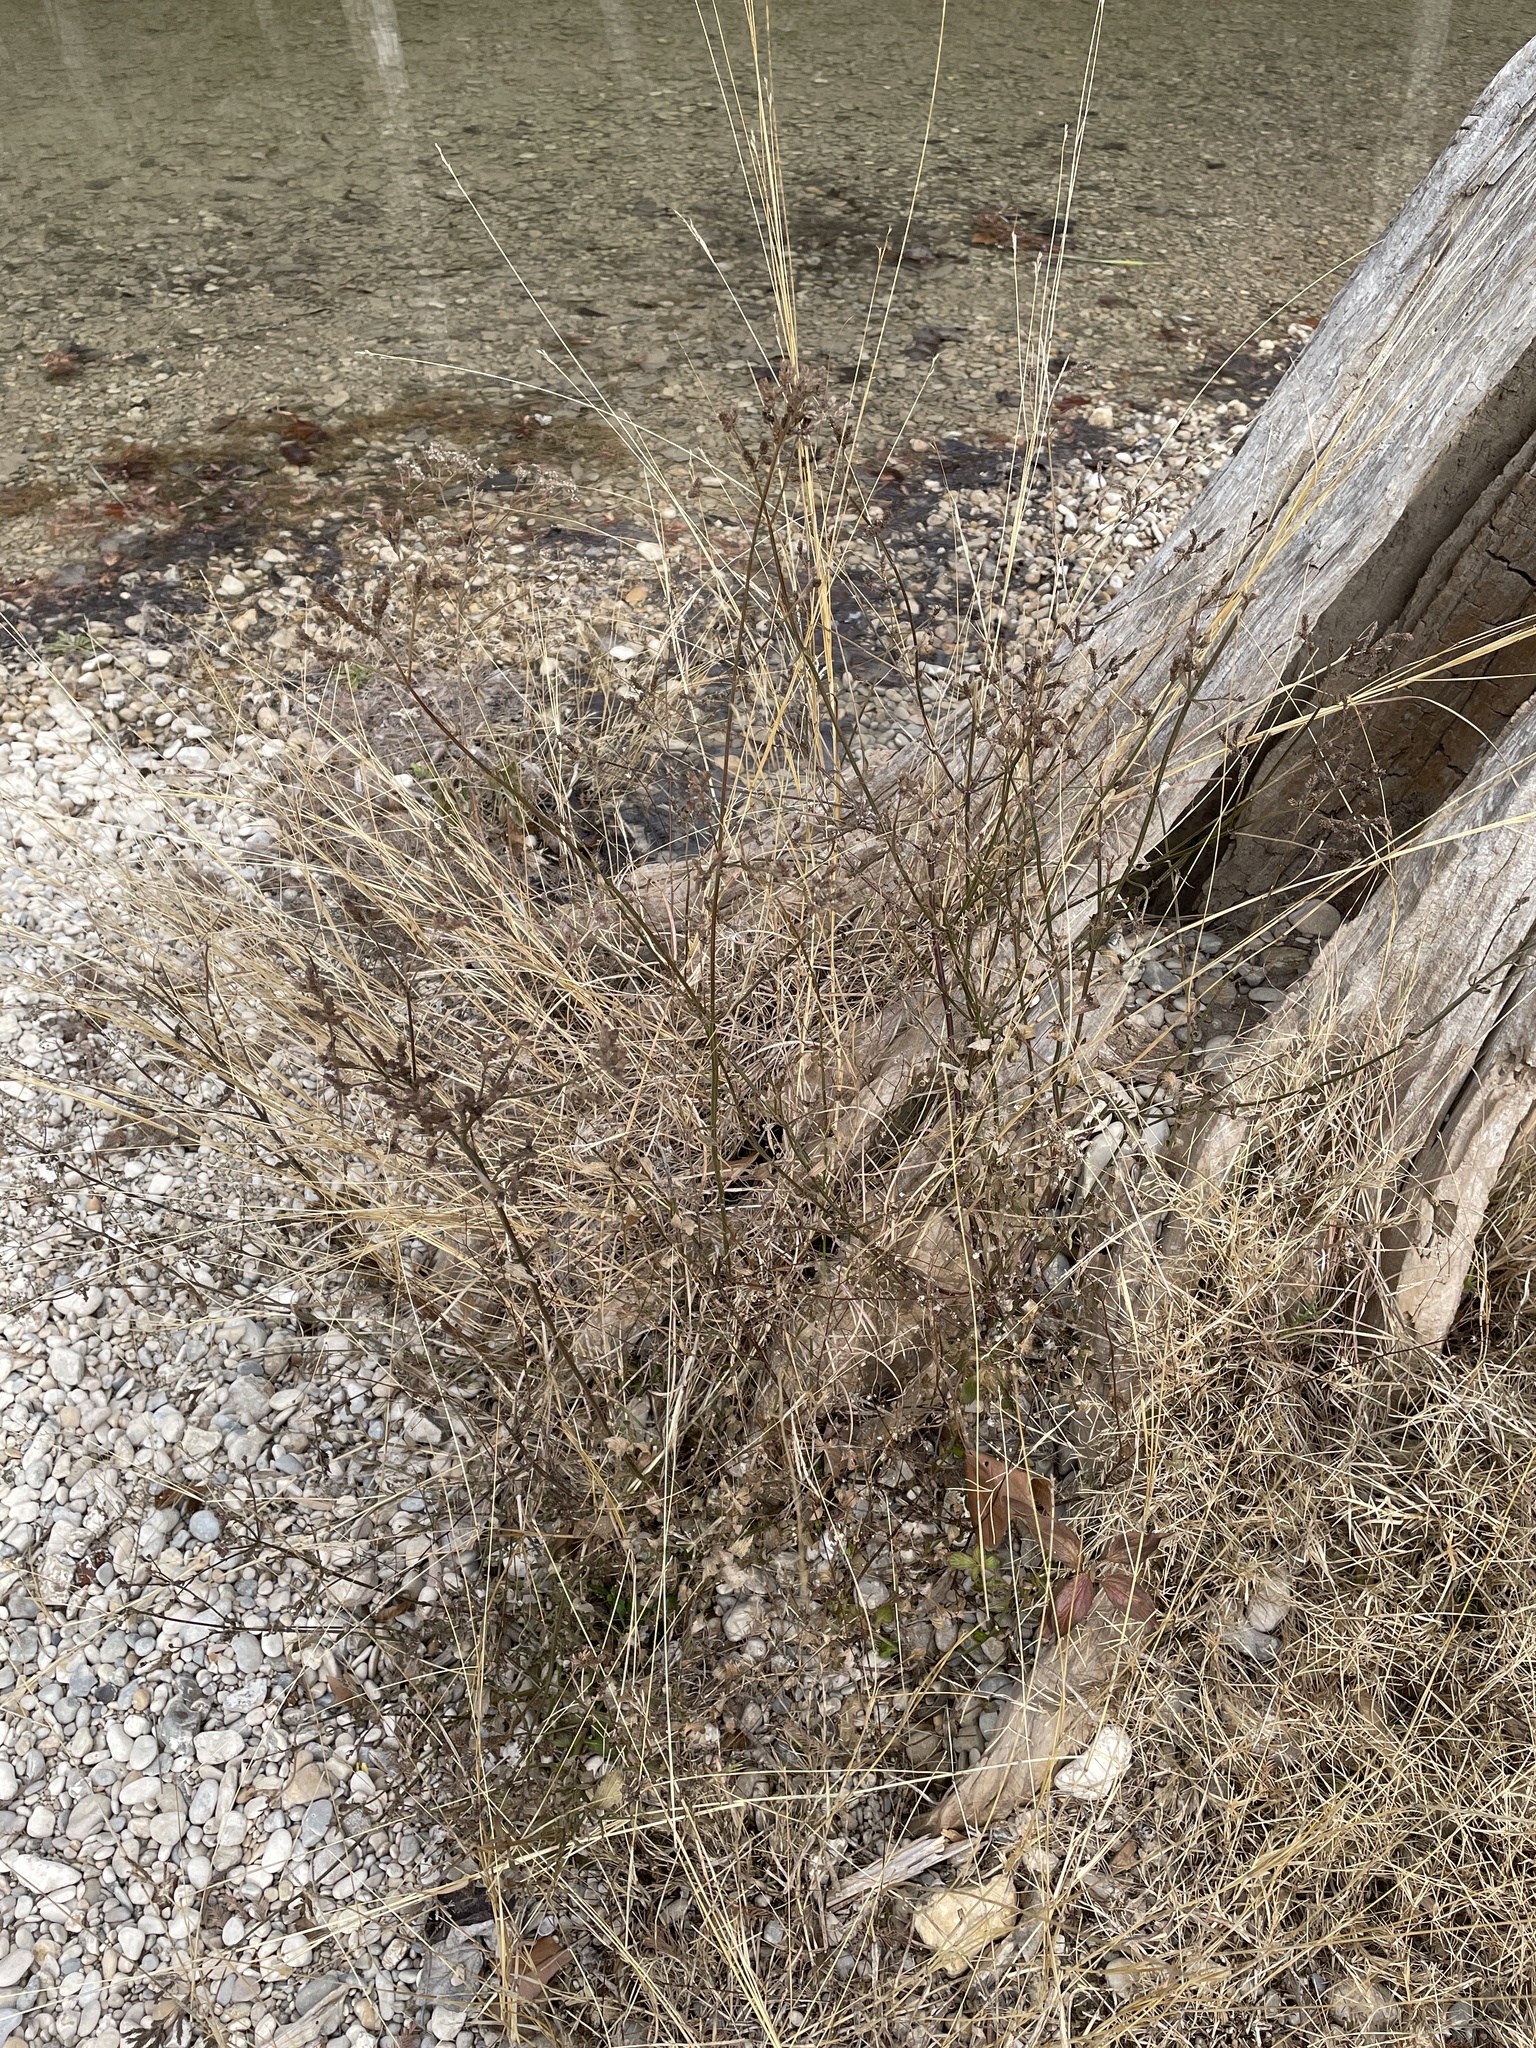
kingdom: Plantae
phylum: Tracheophyta
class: Magnoliopsida
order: Lamiales
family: Verbenaceae
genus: Verbena
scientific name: Verbena brasiliensis
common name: Brazilian vervain
